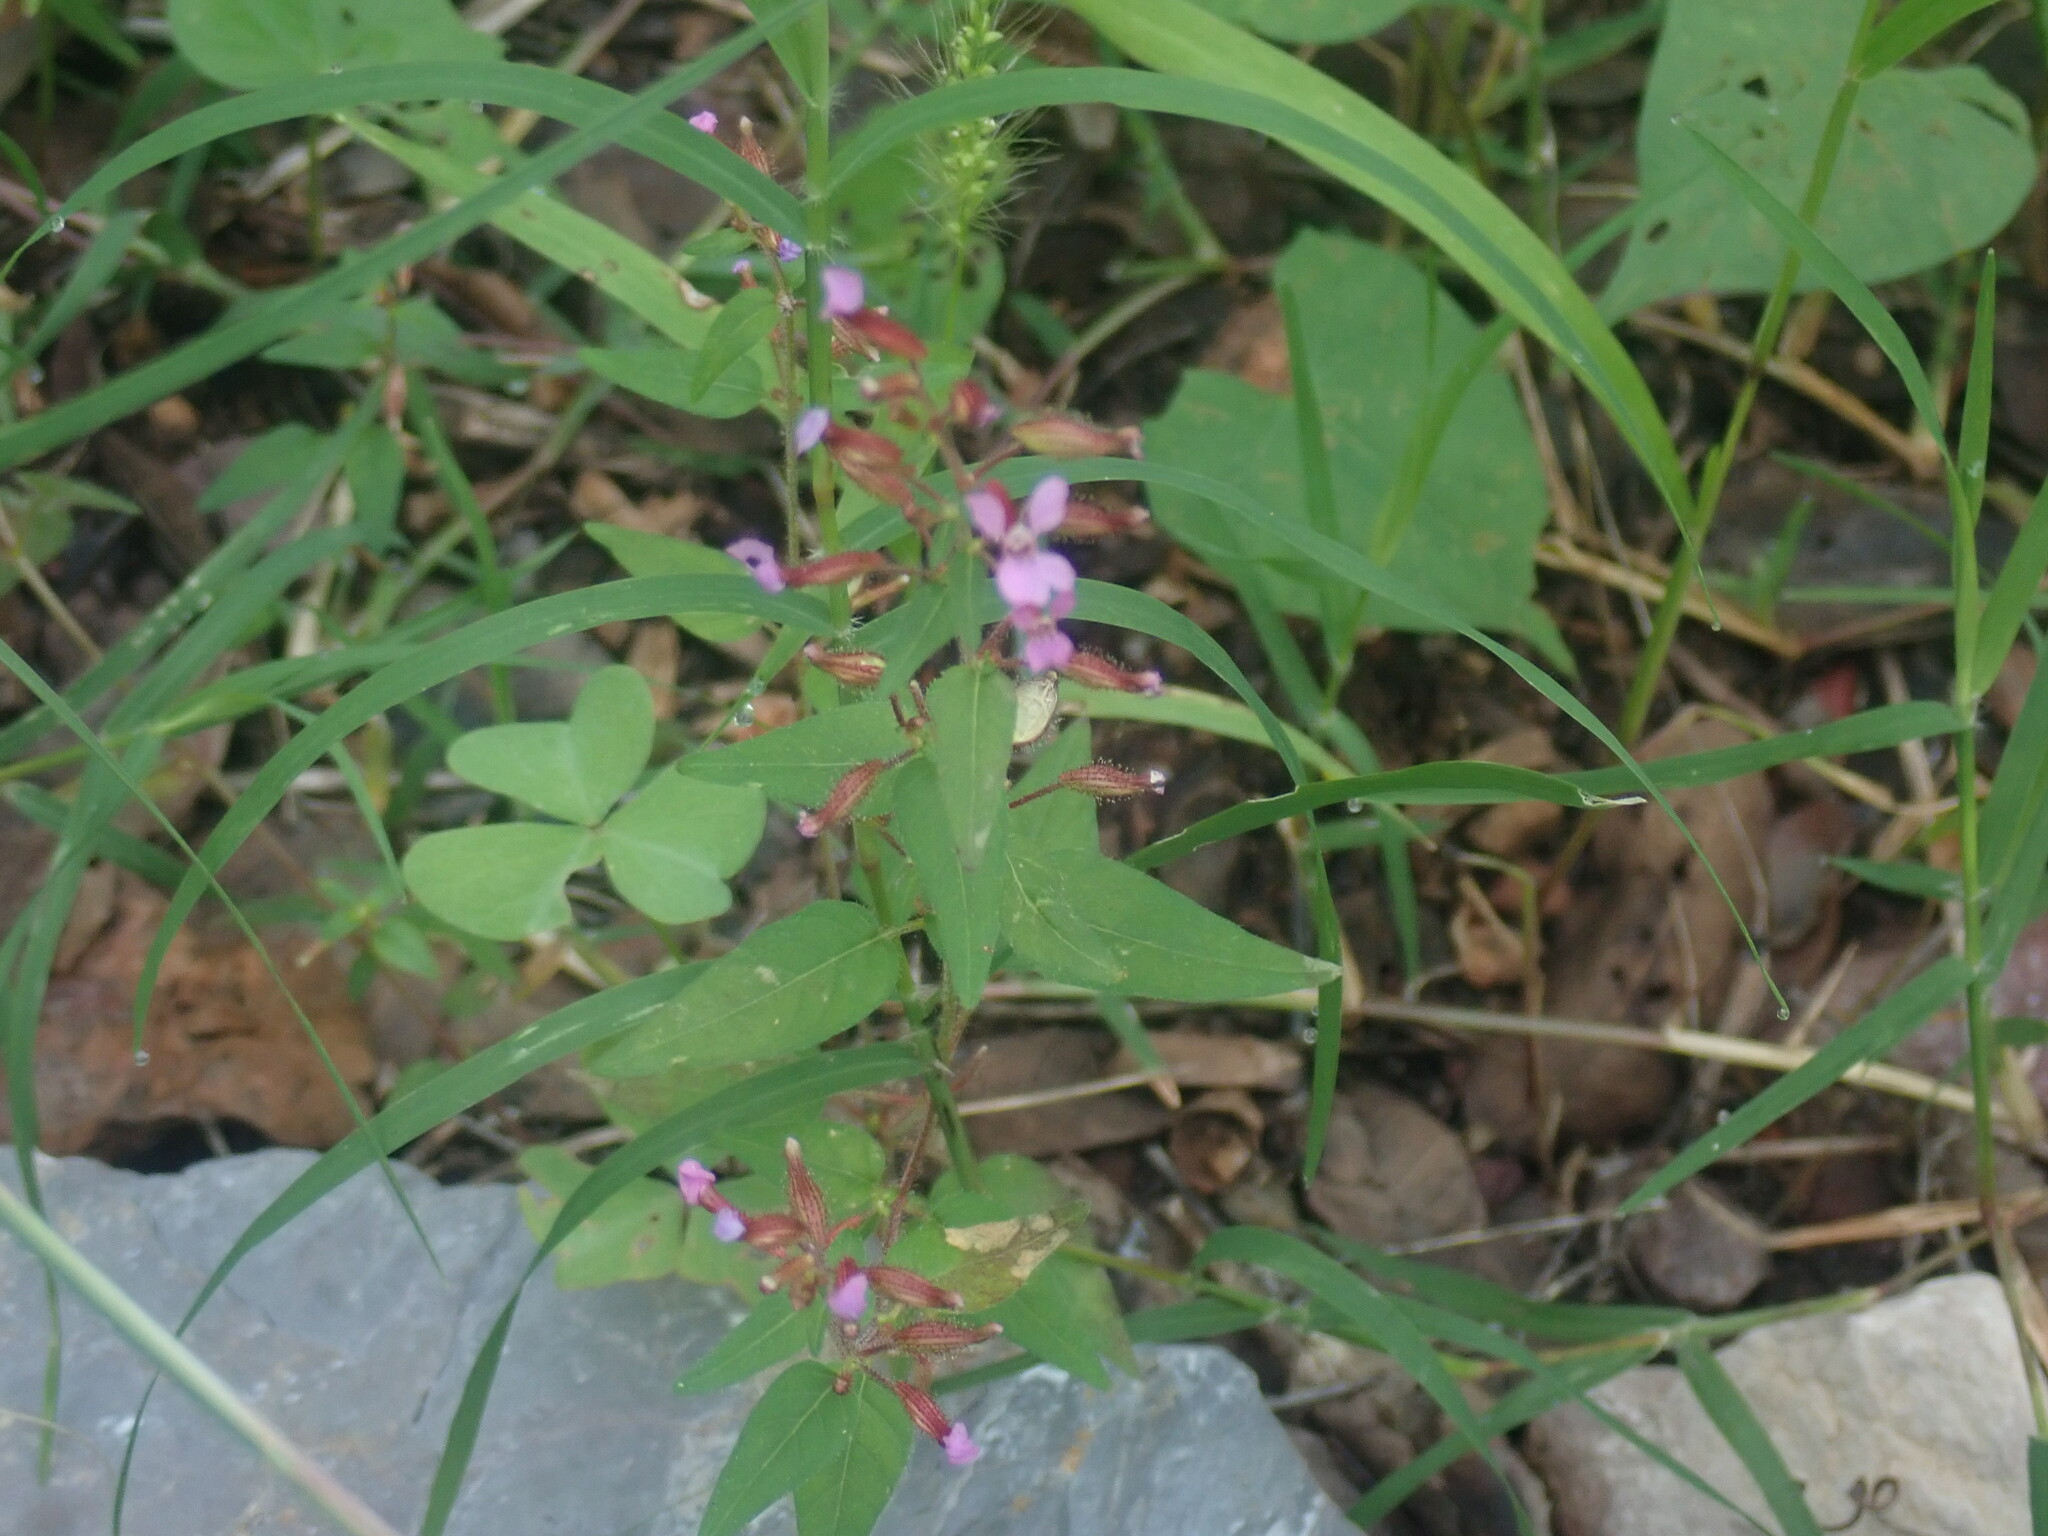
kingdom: Plantae
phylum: Tracheophyta
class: Magnoliopsida
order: Myrtales
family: Lythraceae
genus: Cuphea
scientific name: Cuphea wrightii
